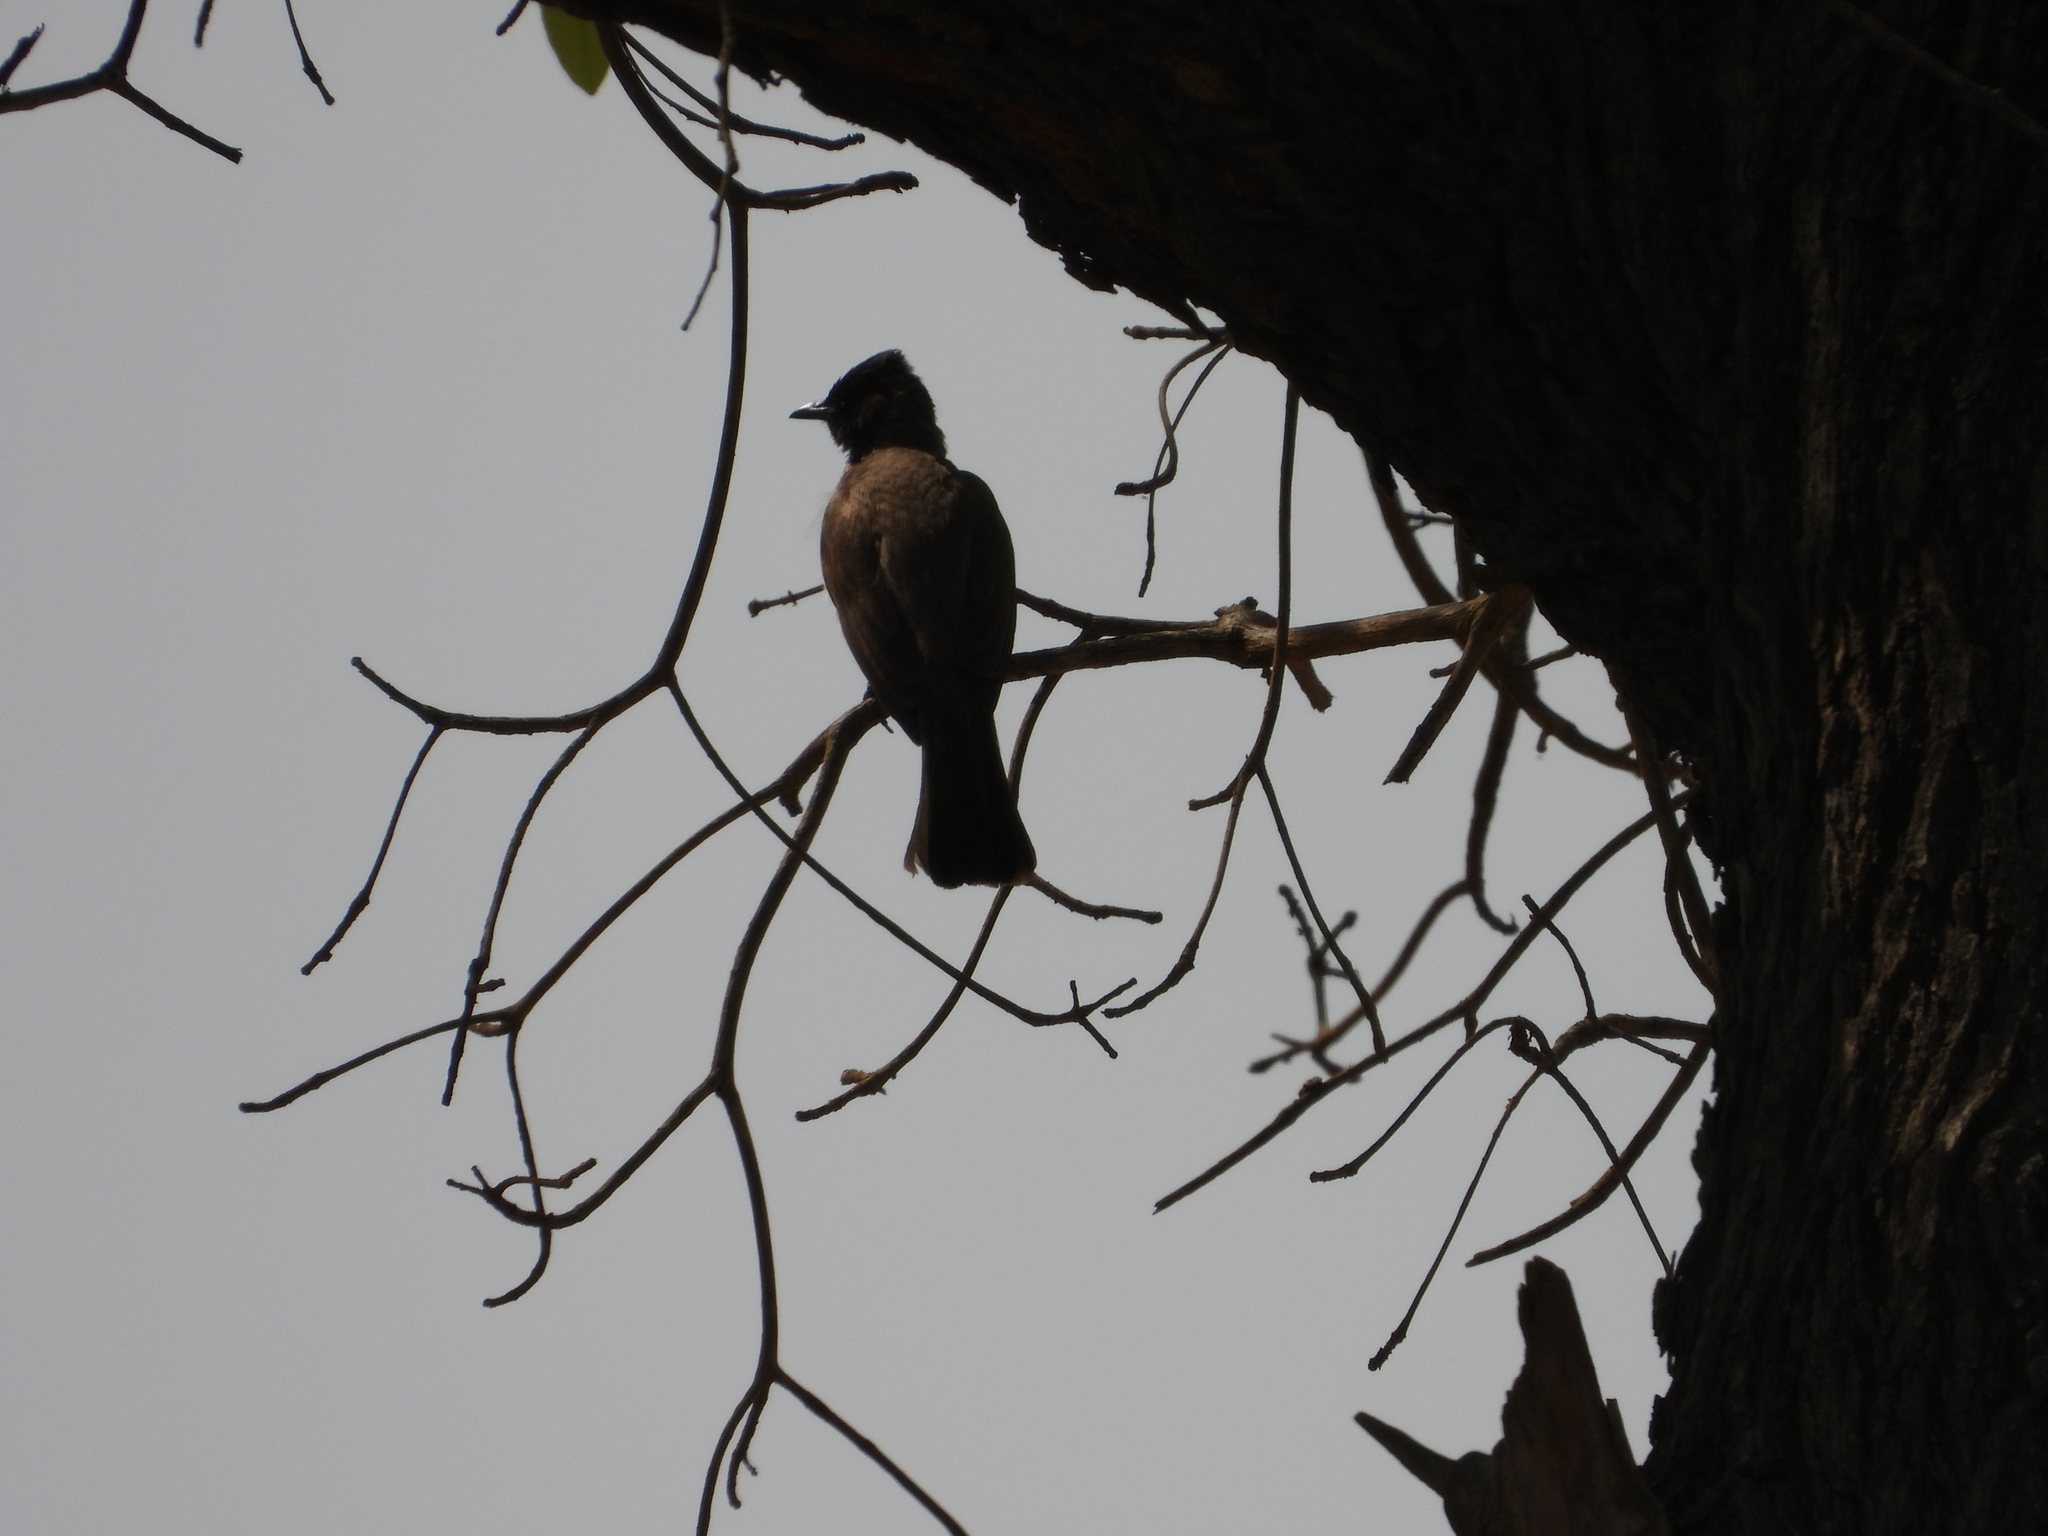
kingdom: Animalia
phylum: Chordata
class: Aves
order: Passeriformes
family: Pycnonotidae
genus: Pycnonotus
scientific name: Pycnonotus barbatus
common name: Common bulbul
